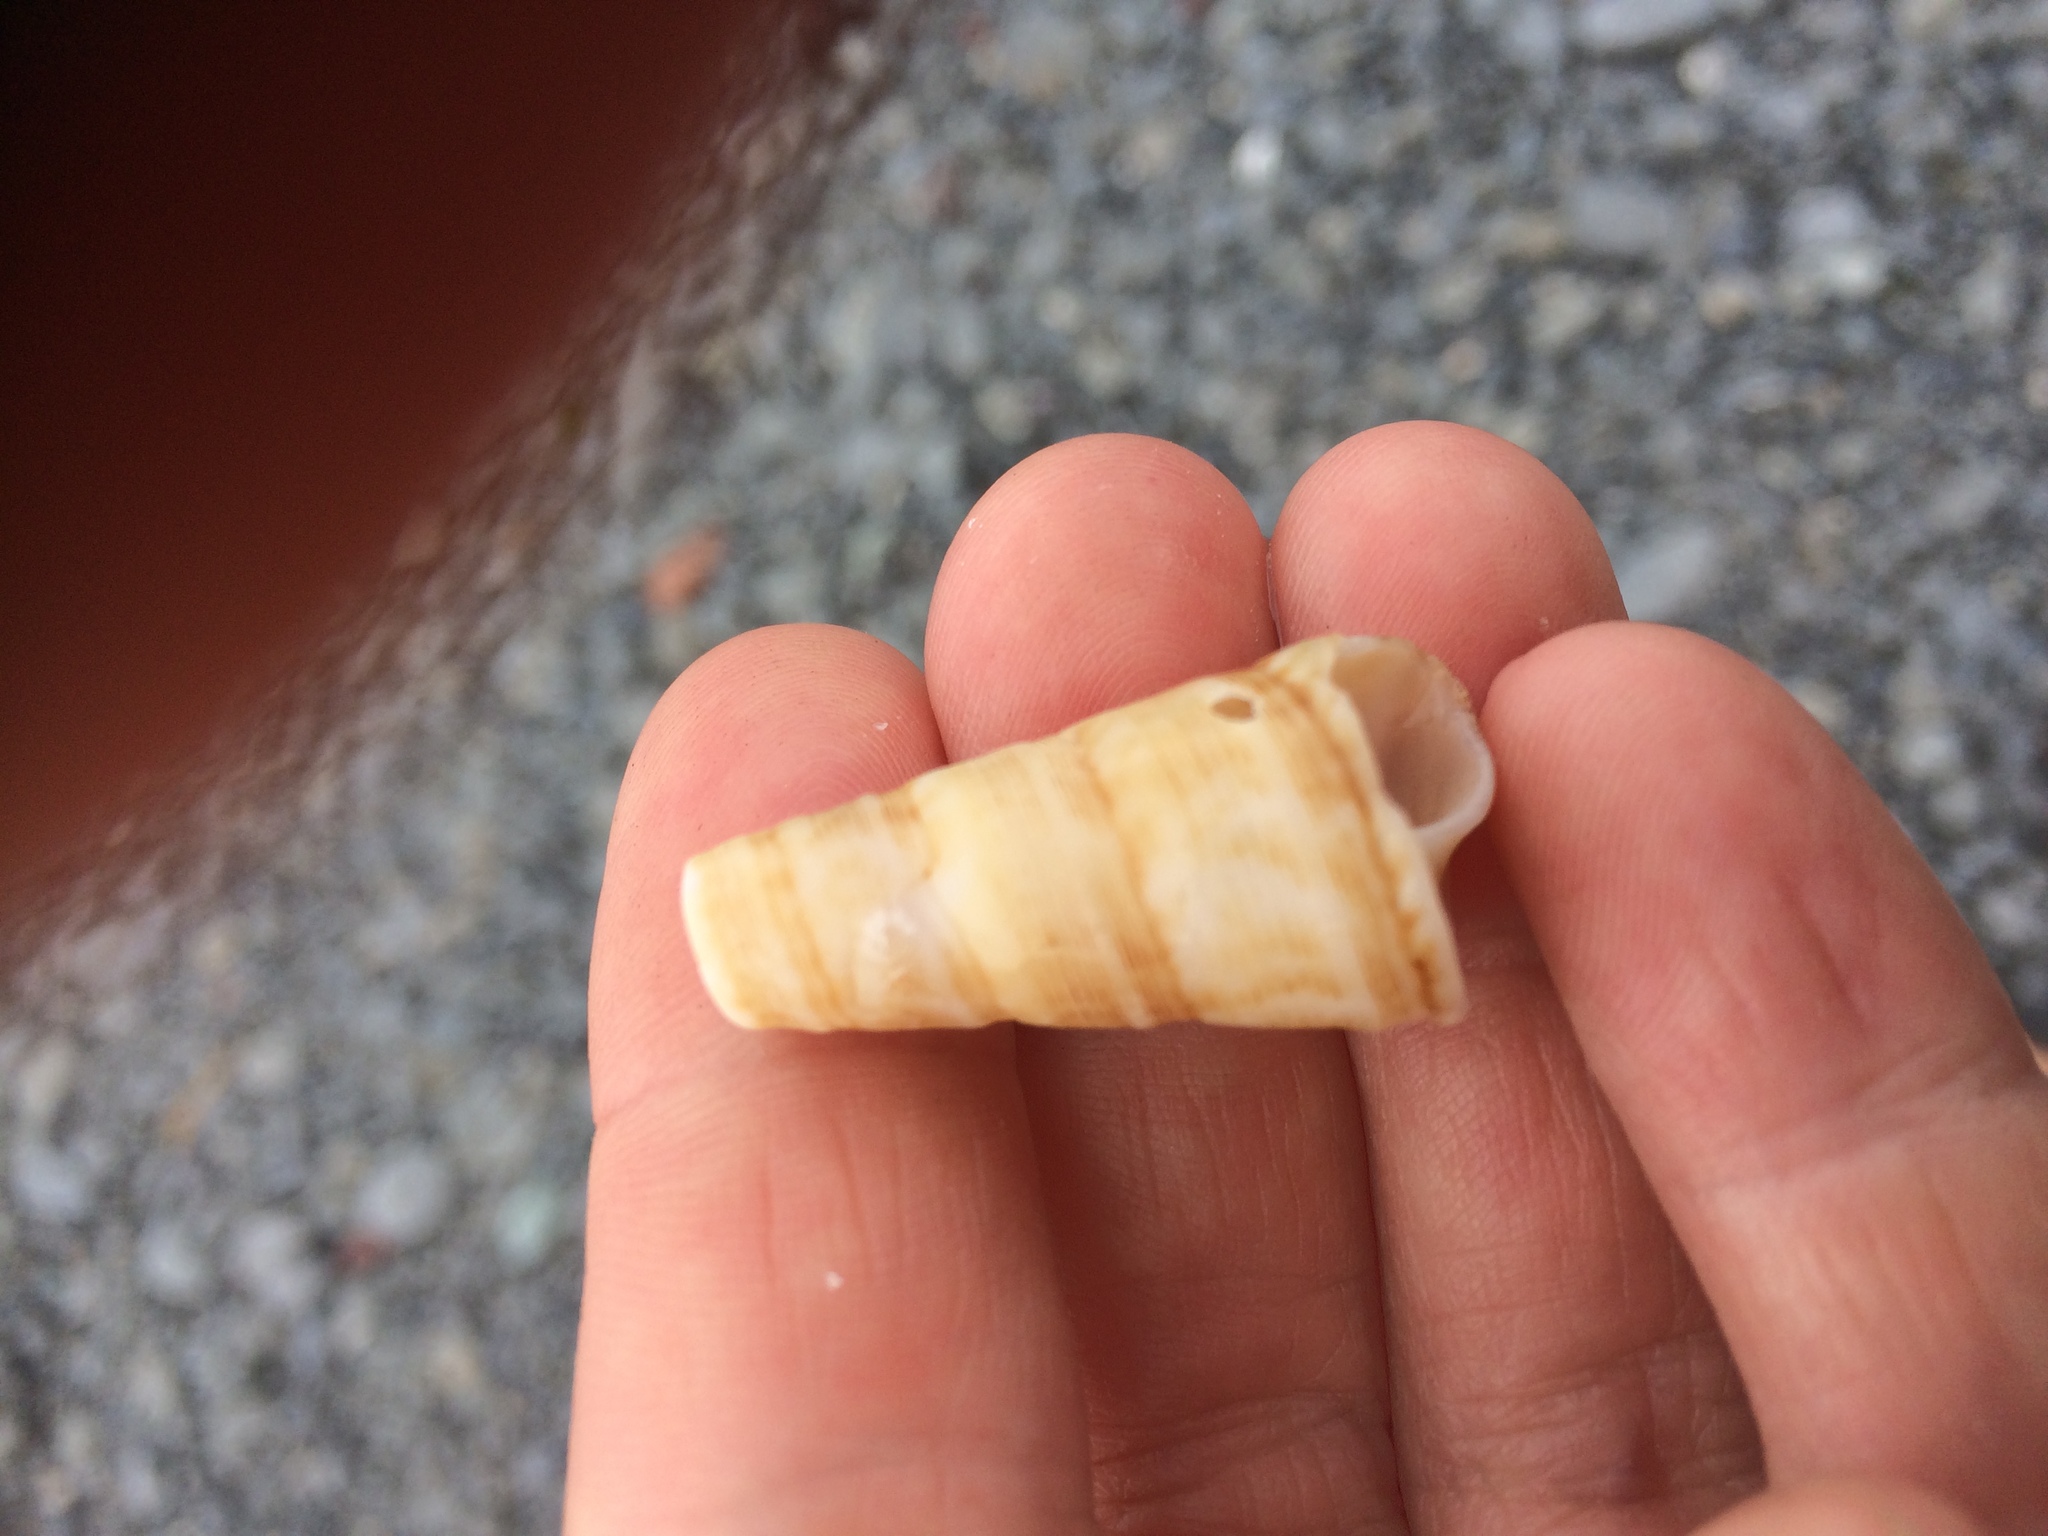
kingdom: Animalia
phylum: Mollusca
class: Gastropoda
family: Turritellidae
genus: Maoricolpus
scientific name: Maoricolpus roseus
